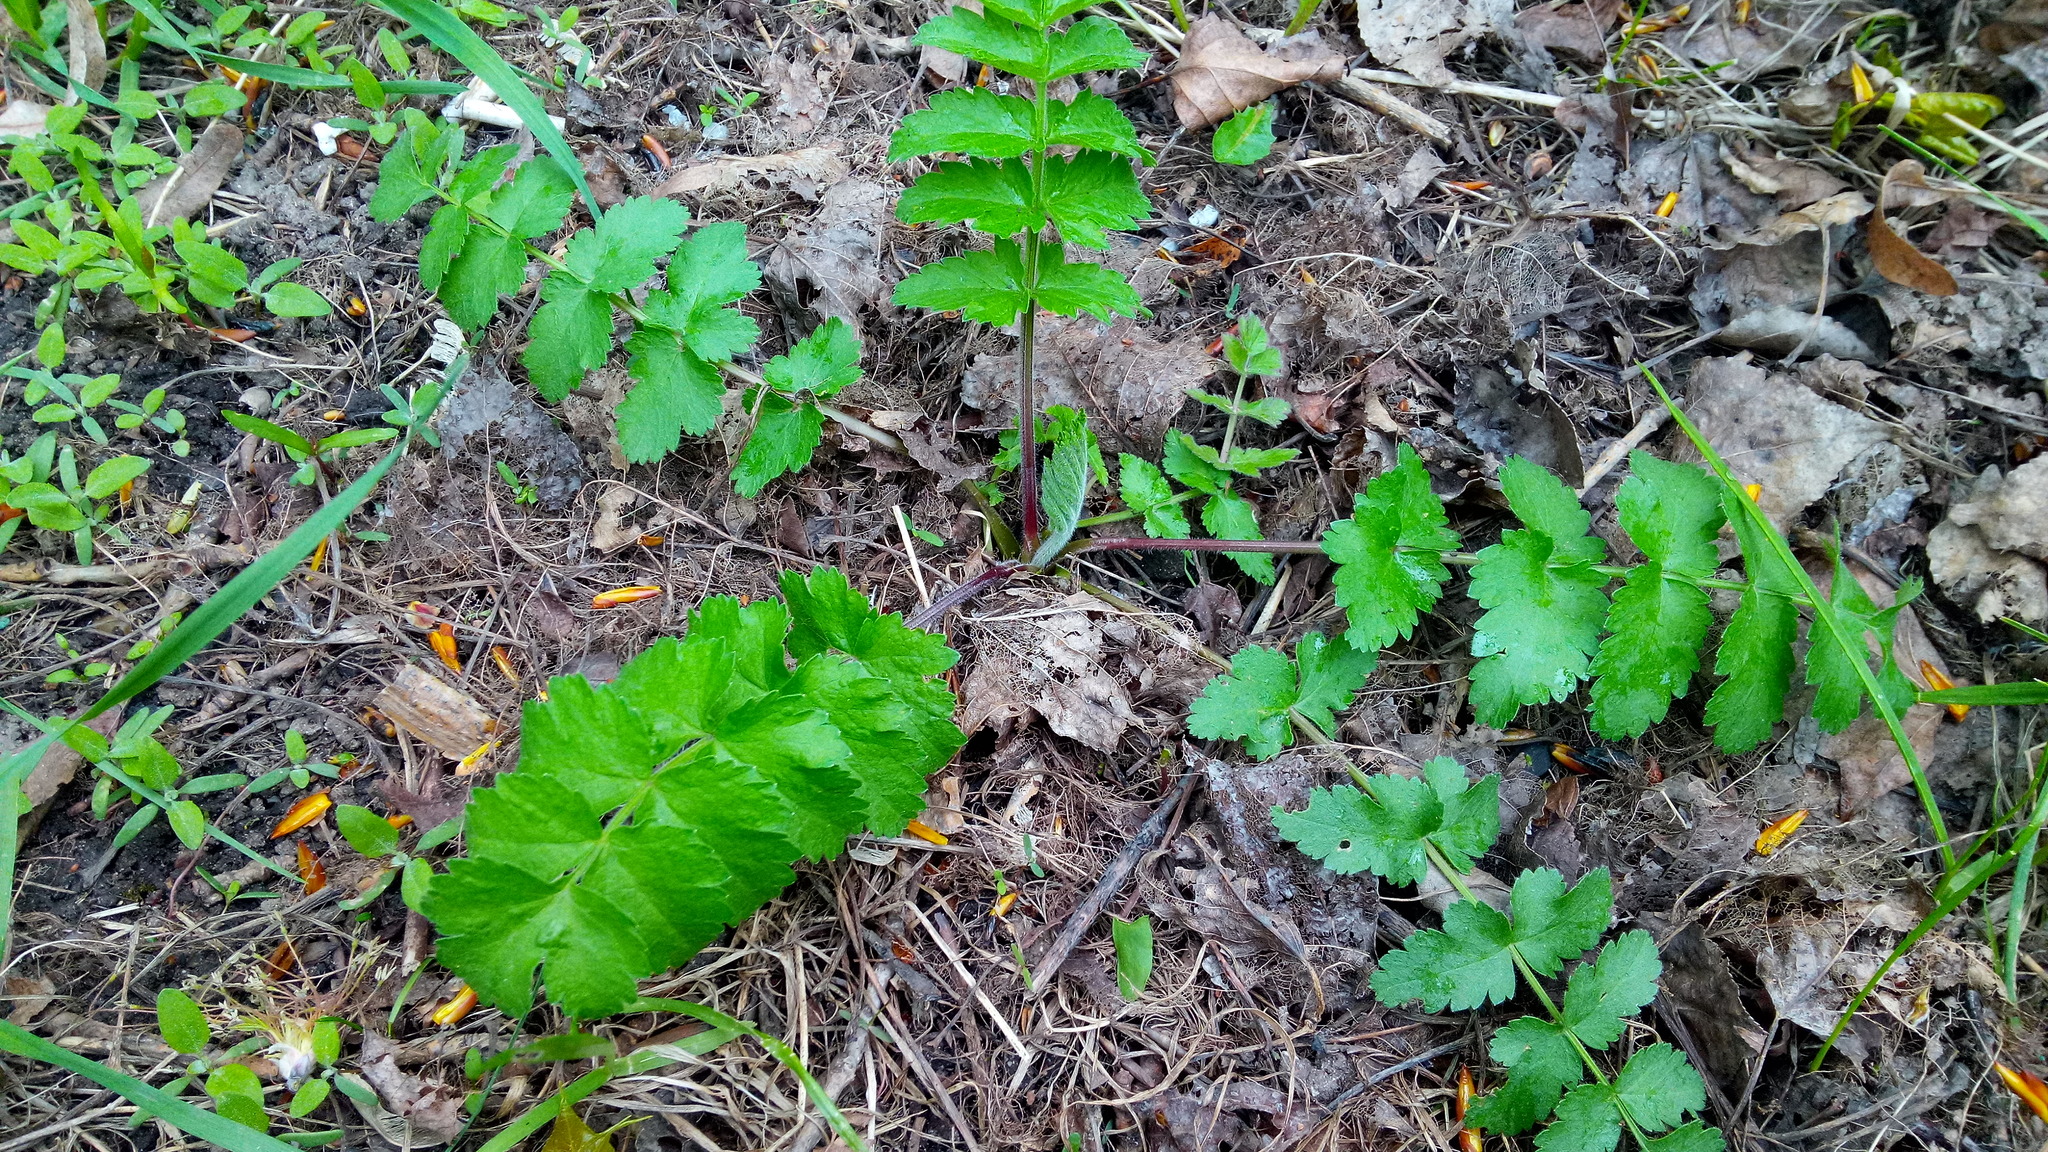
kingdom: Plantae
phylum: Tracheophyta
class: Magnoliopsida
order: Apiales
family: Apiaceae
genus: Pastinaca
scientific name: Pastinaca sativa
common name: Wild parsnip
